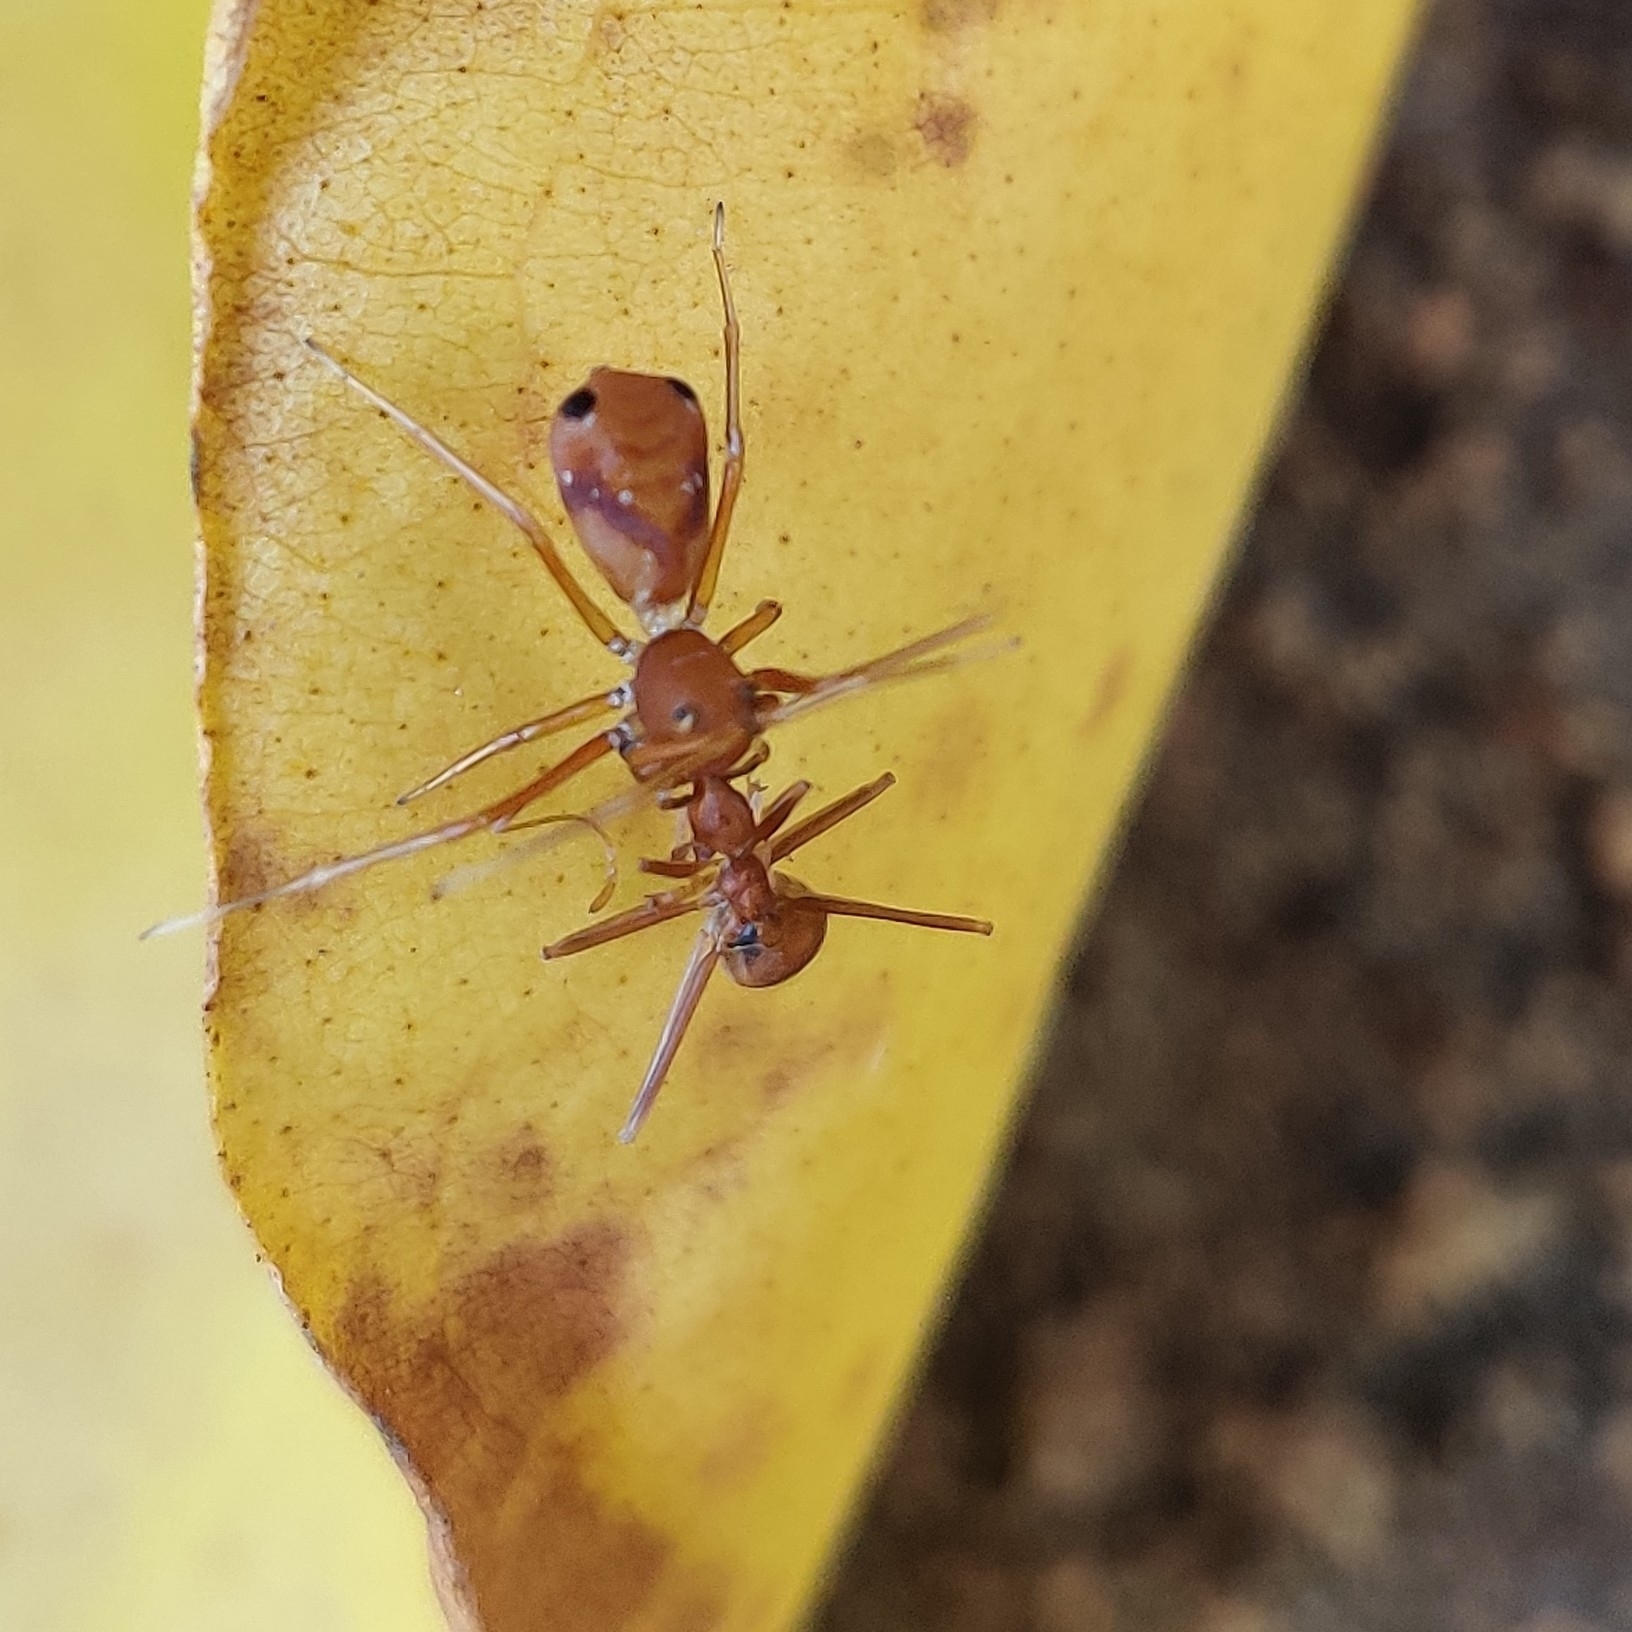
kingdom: Animalia
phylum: Arthropoda
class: Insecta
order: Hymenoptera
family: Formicidae
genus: Oecophylla
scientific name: Oecophylla smaragdina
